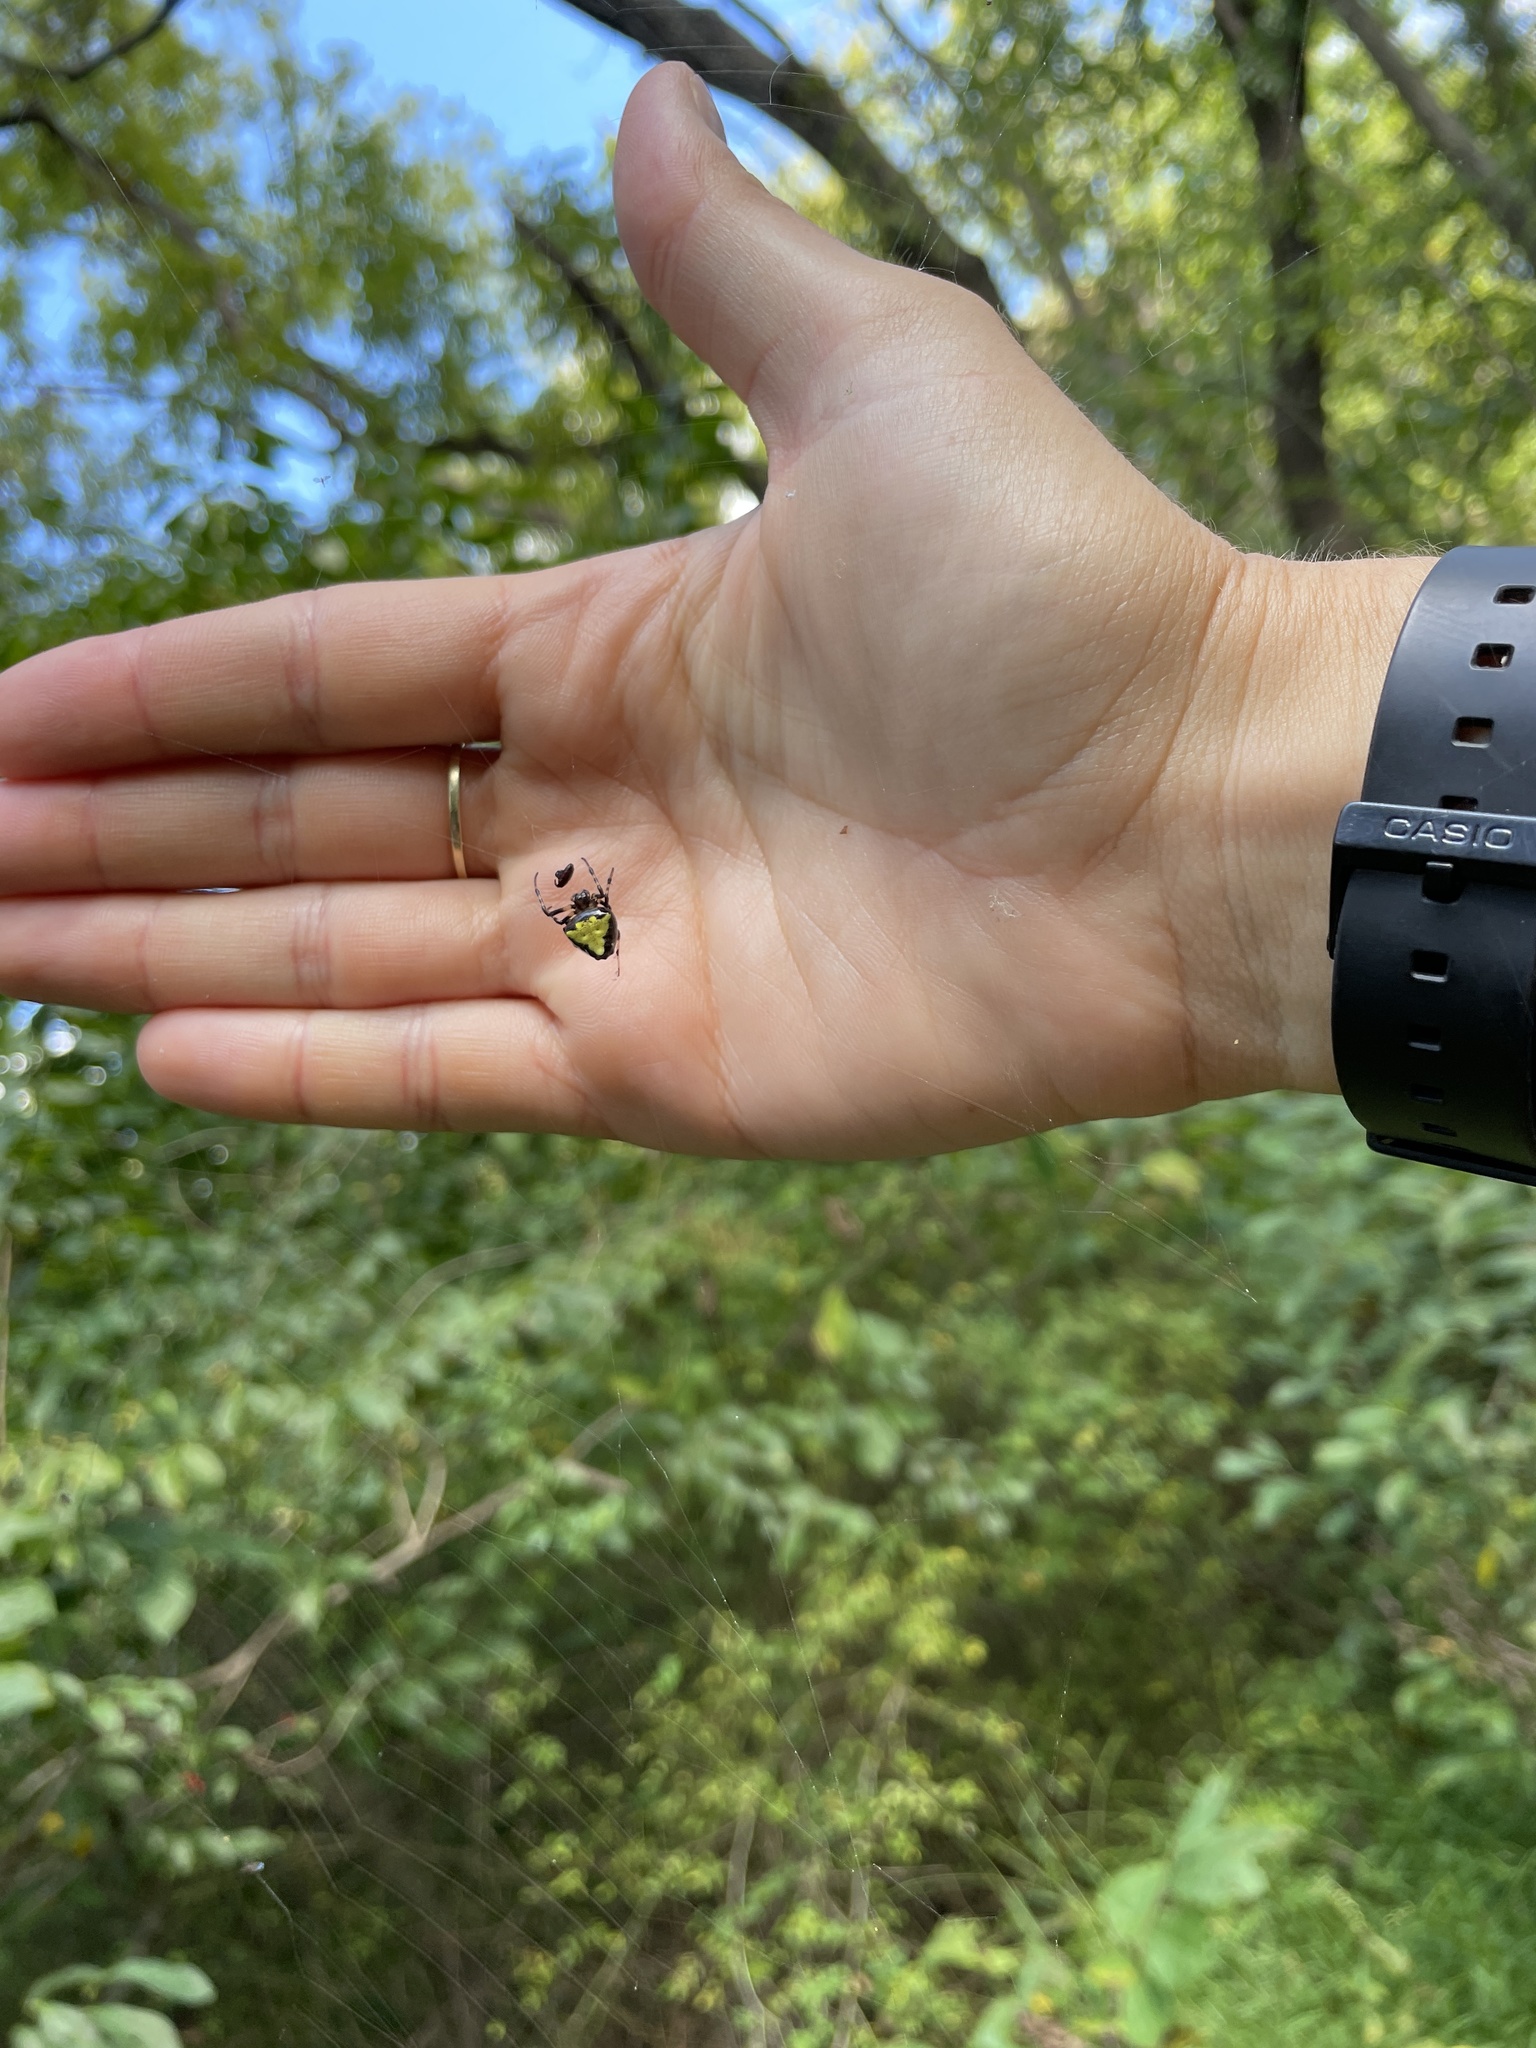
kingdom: Animalia
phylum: Arthropoda
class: Arachnida
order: Araneae
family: Araneidae
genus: Verrucosa
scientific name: Verrucosa arenata
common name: Orb weavers
